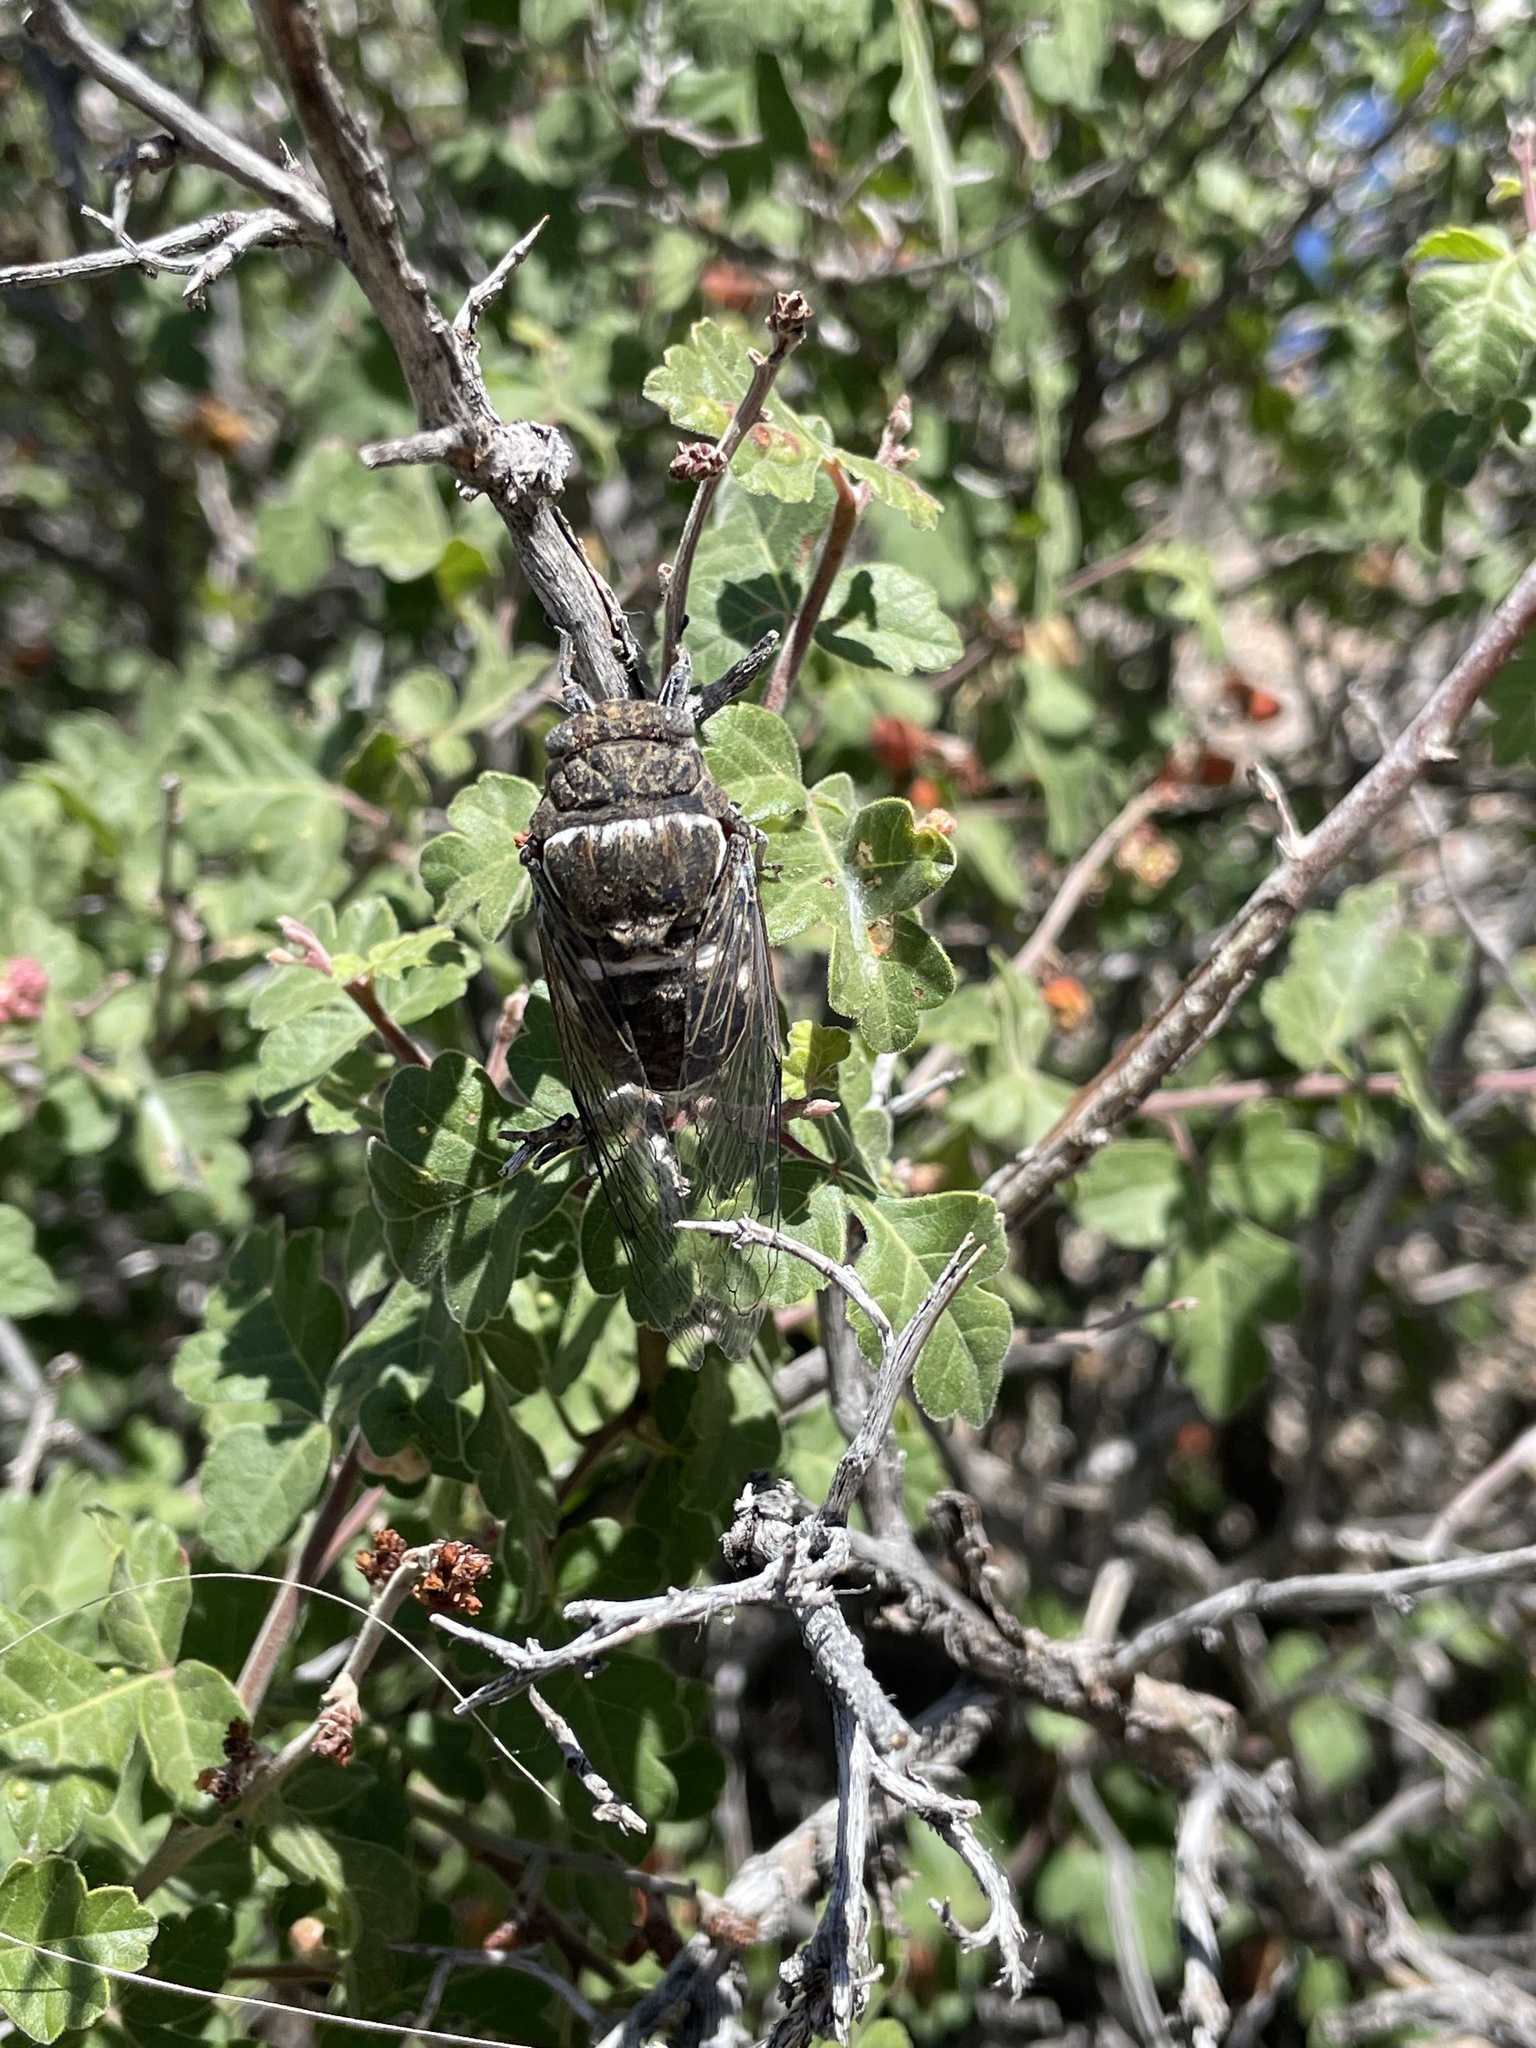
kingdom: Animalia
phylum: Arthropoda
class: Insecta
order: Hemiptera
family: Cicadidae
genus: Cacama
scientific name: Cacama valvata
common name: Cactus dodger
